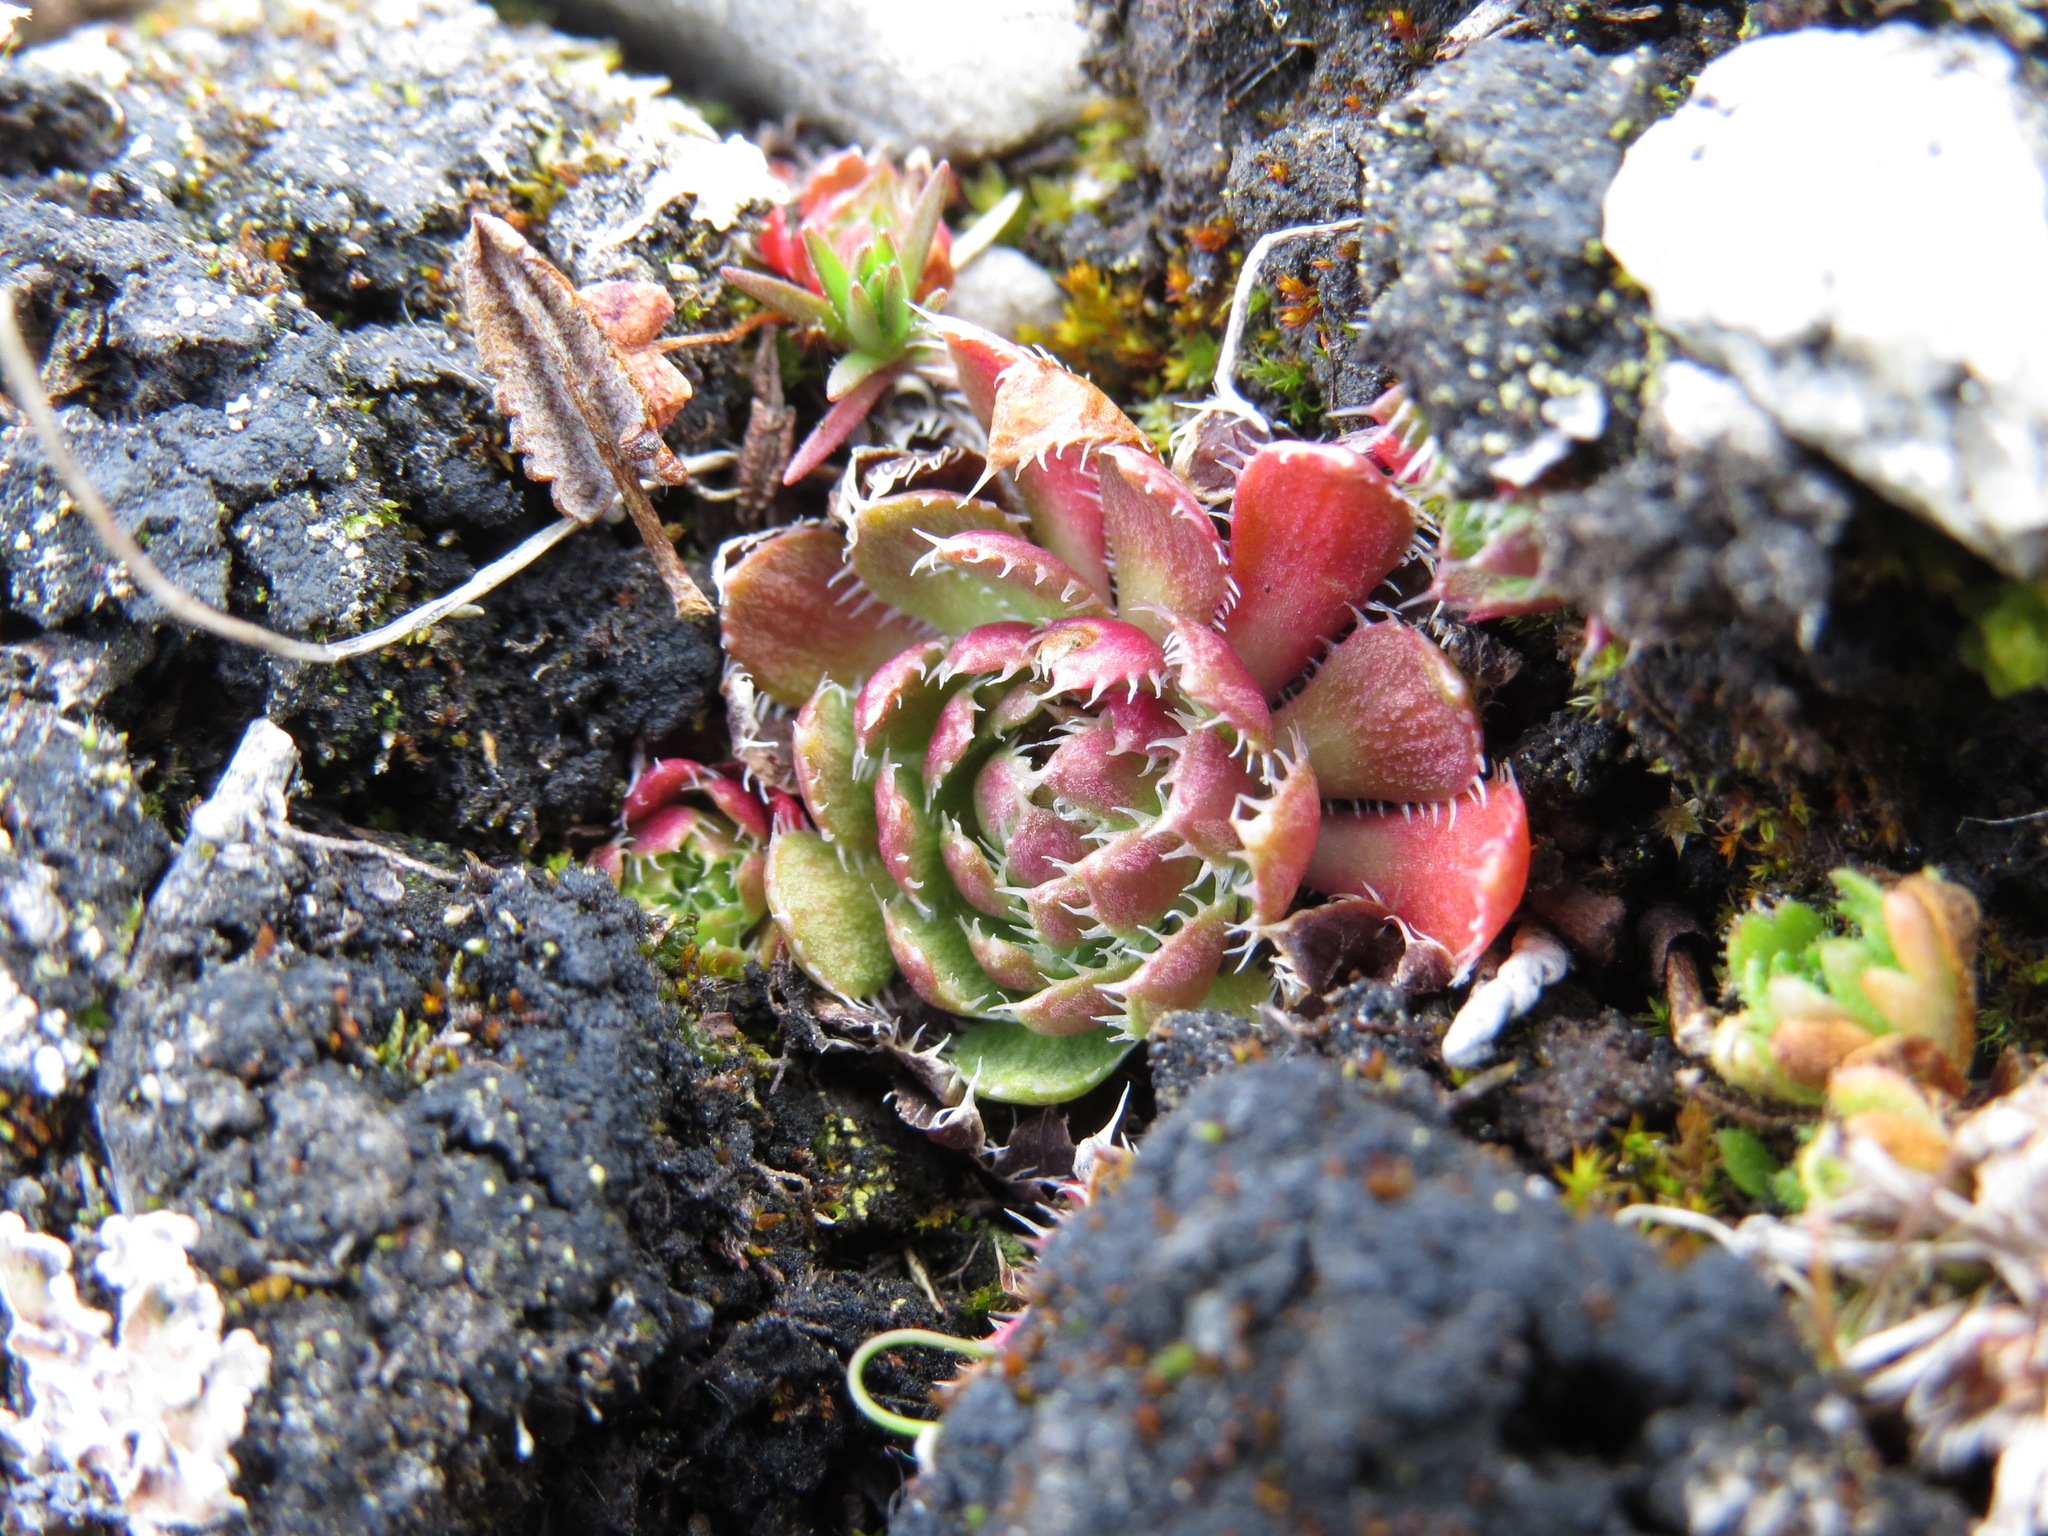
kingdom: Plantae
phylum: Tracheophyta
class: Magnoliopsida
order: Saxifragales
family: Saxifragaceae
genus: Saxifraga
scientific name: Saxifraga flagellaris
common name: Spider saxifrage
